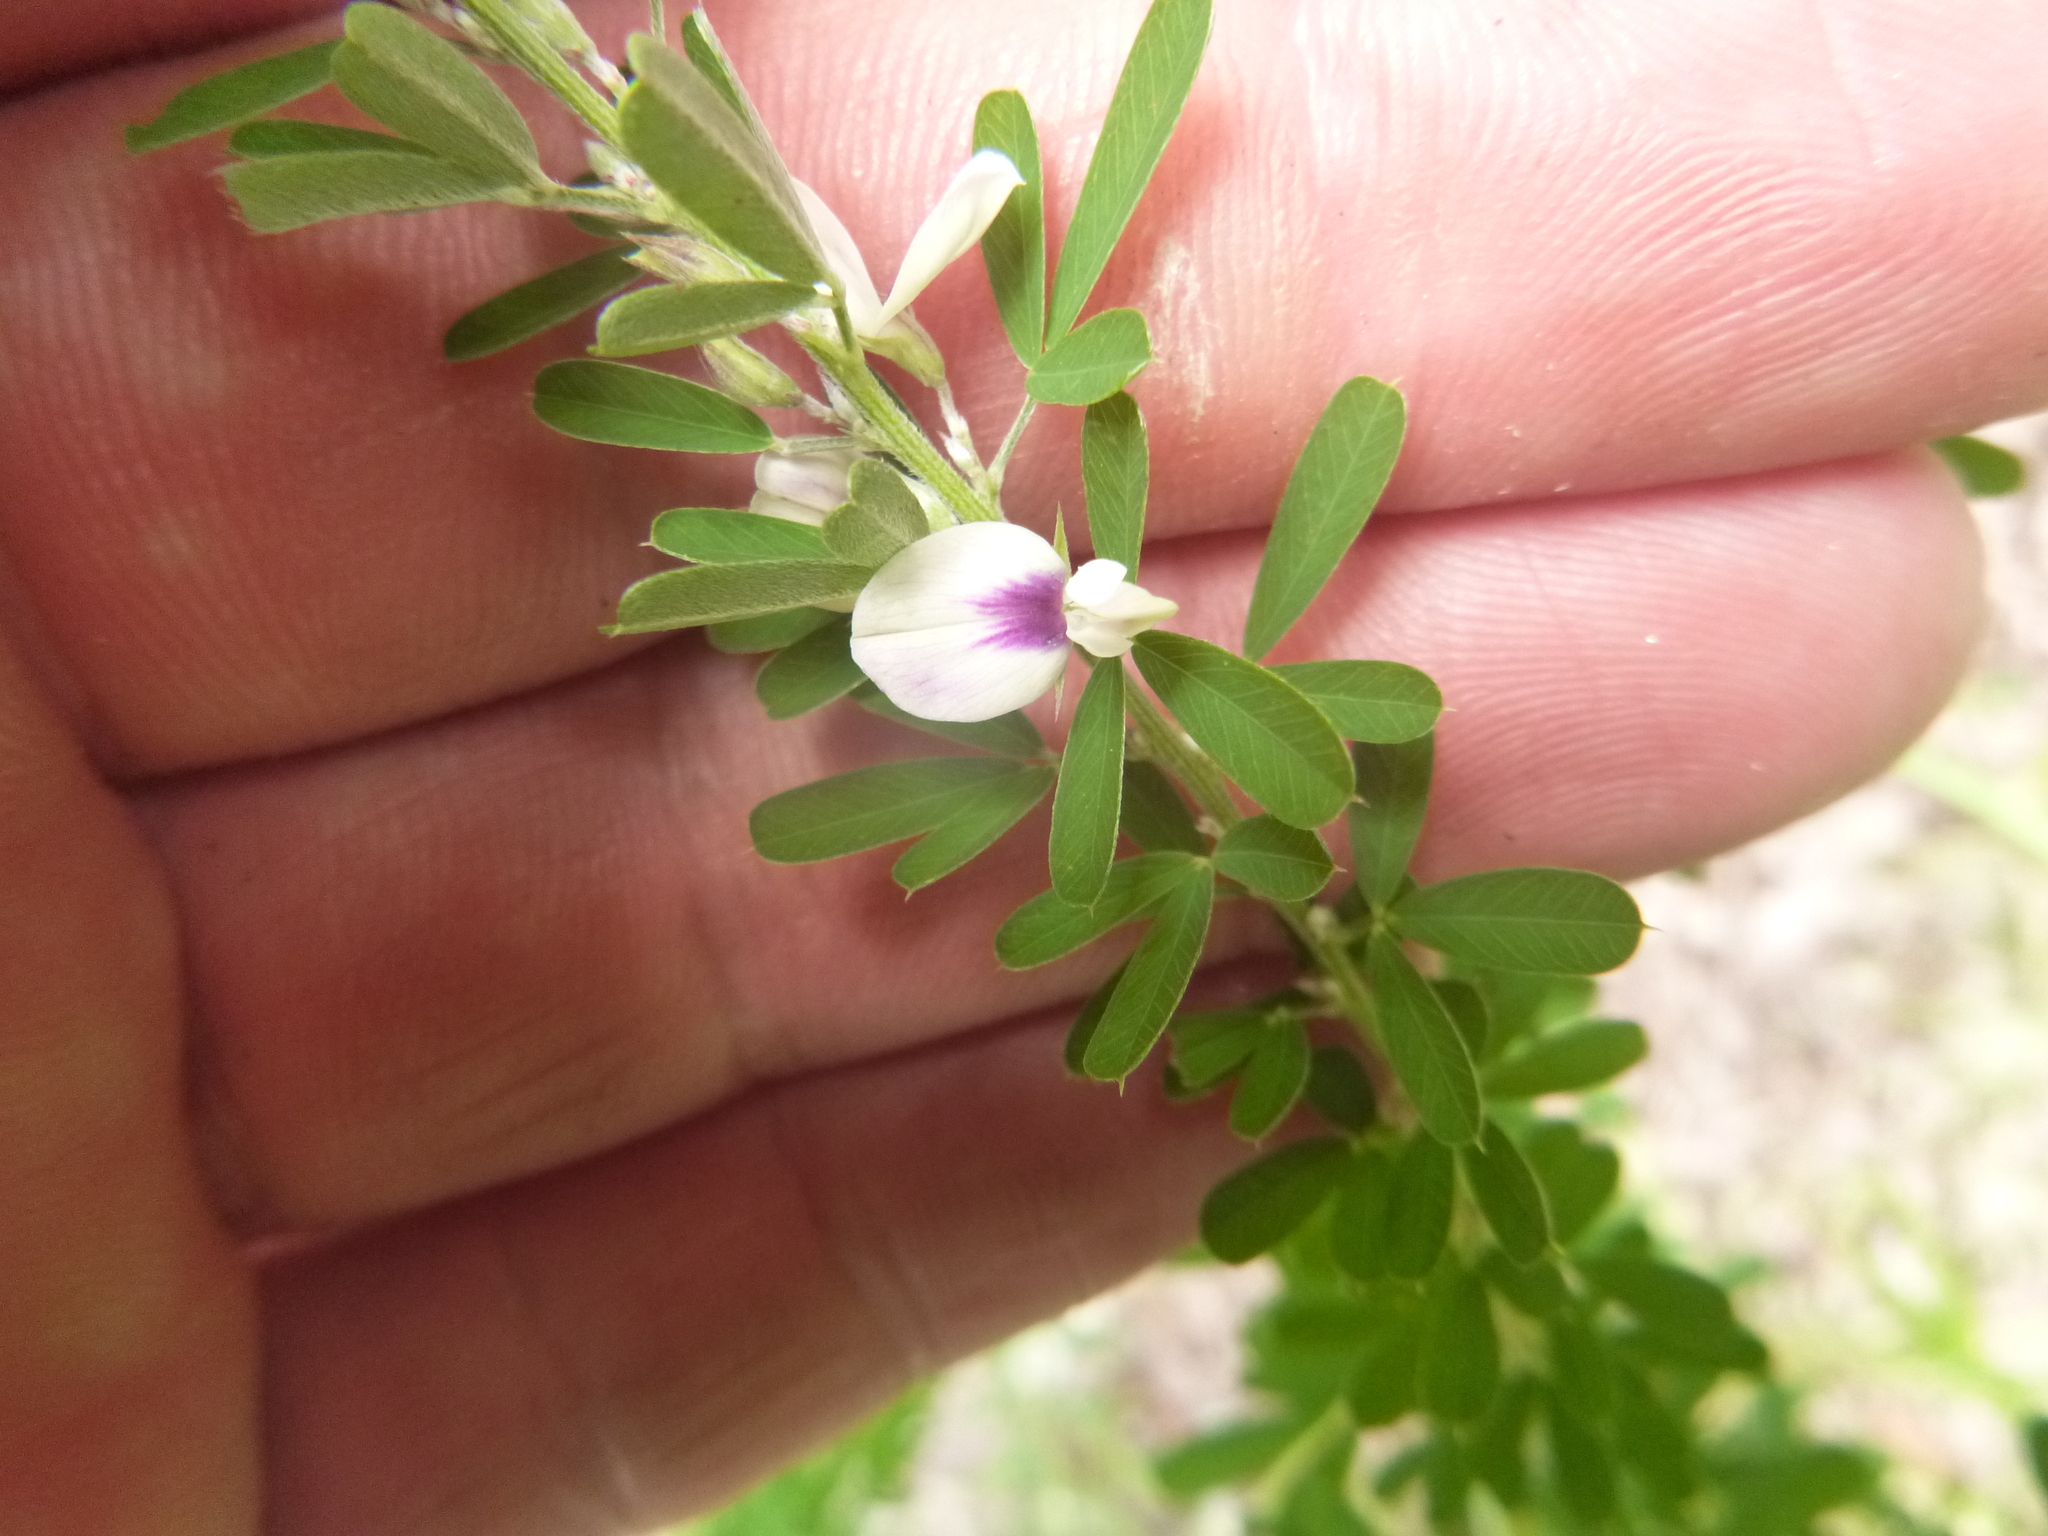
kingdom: Plantae
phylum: Tracheophyta
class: Magnoliopsida
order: Fabales
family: Fabaceae
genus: Lespedeza
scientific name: Lespedeza cuneata
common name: Chinese bush-clover
